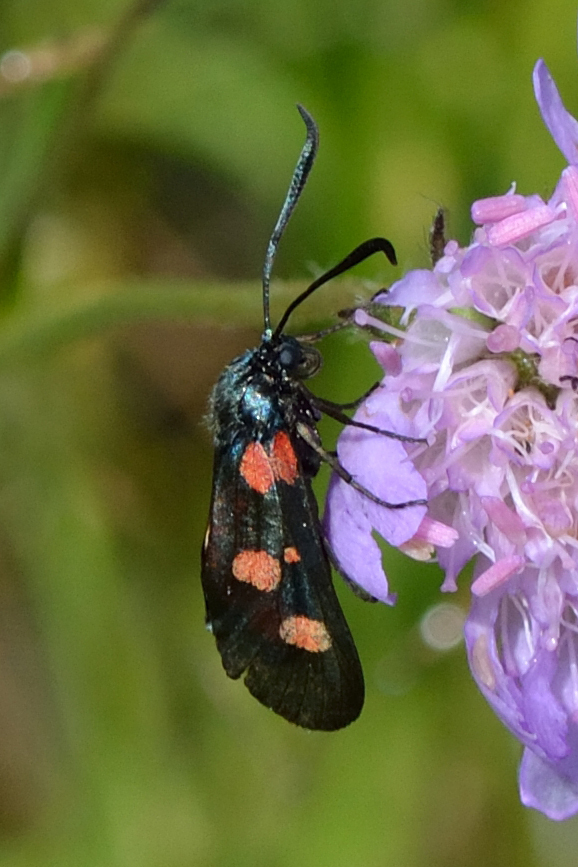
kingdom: Animalia
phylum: Arthropoda
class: Insecta
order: Lepidoptera
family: Zygaenidae
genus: Zygaena
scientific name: Zygaena lonicerae
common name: Narrow-bordered five-spot burnet
